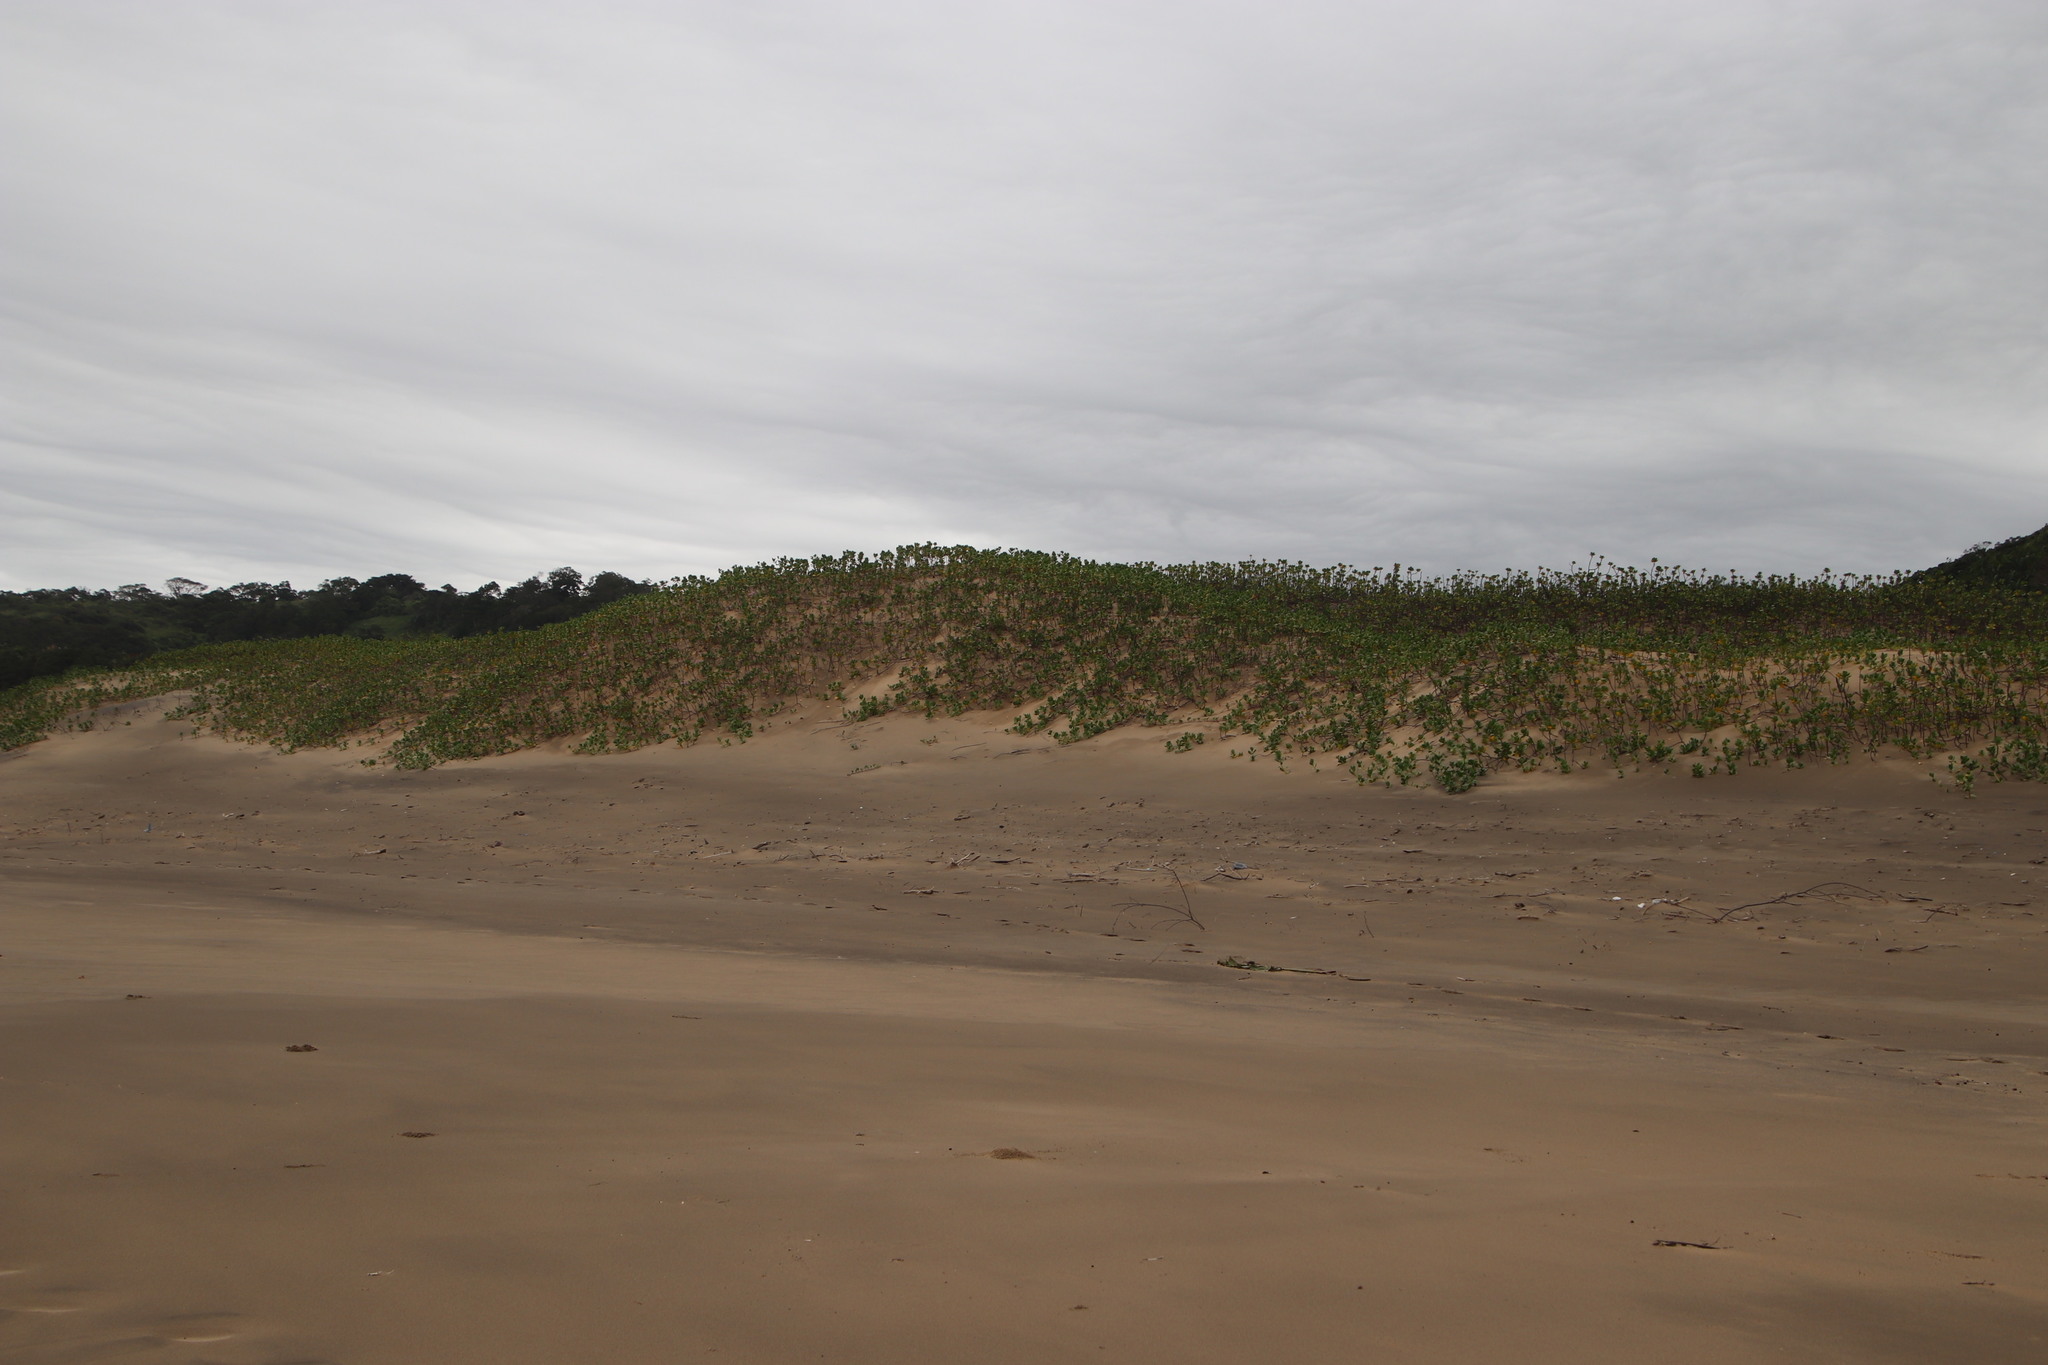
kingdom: Plantae
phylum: Tracheophyta
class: Magnoliopsida
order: Asterales
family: Goodeniaceae
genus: Scaevola
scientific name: Scaevola plumieri
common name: Gull feed
